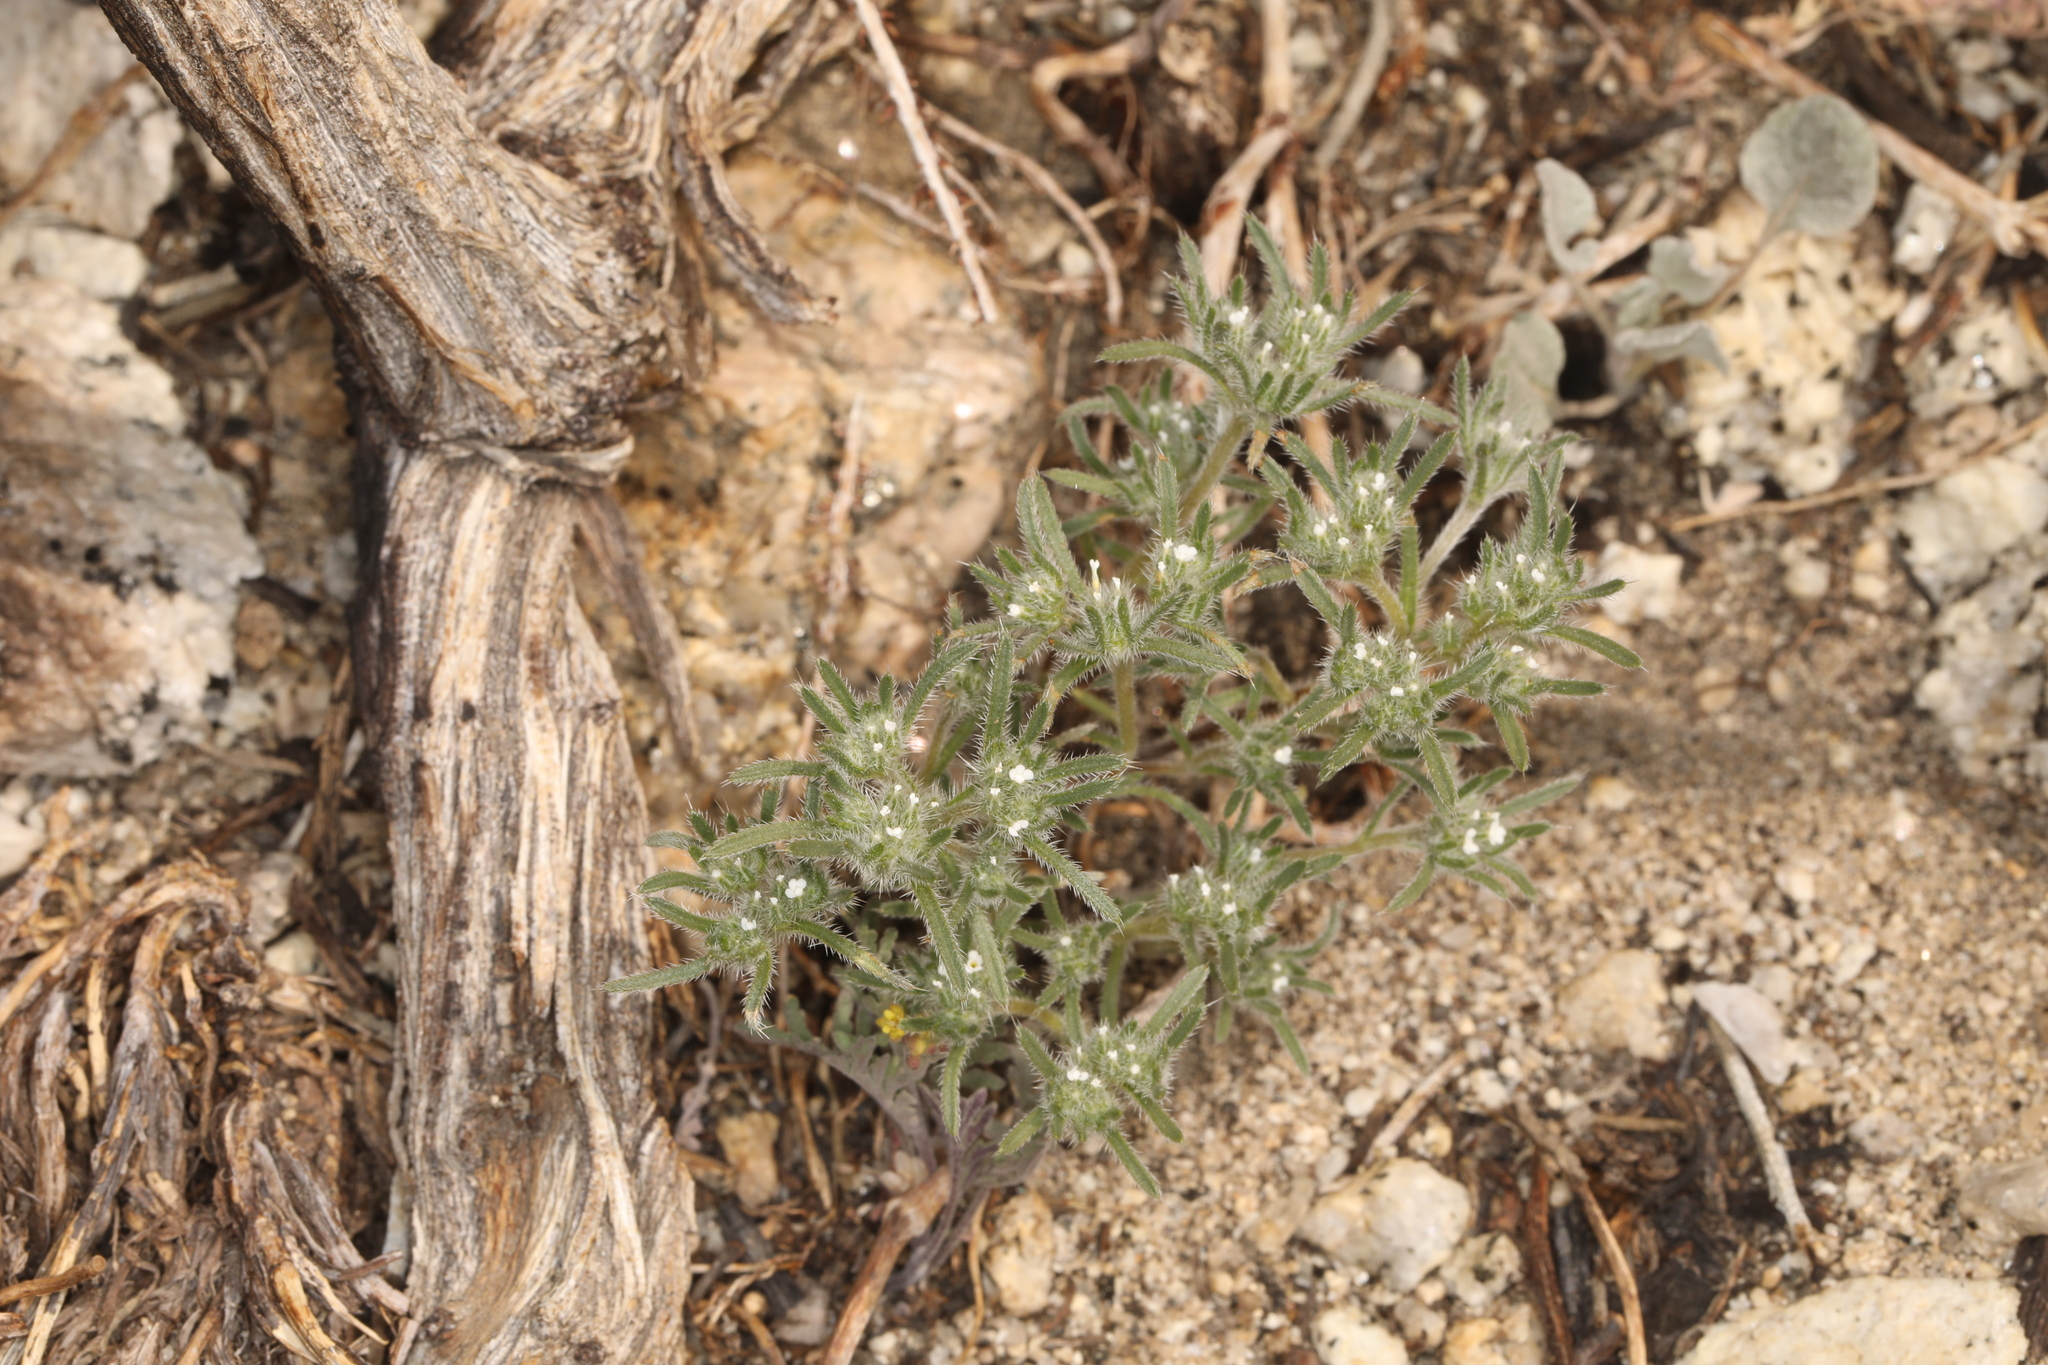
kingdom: Plantae
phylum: Tracheophyta
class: Magnoliopsida
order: Boraginales
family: Boraginaceae
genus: Greeneocharis
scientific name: Greeneocharis circumscissa
